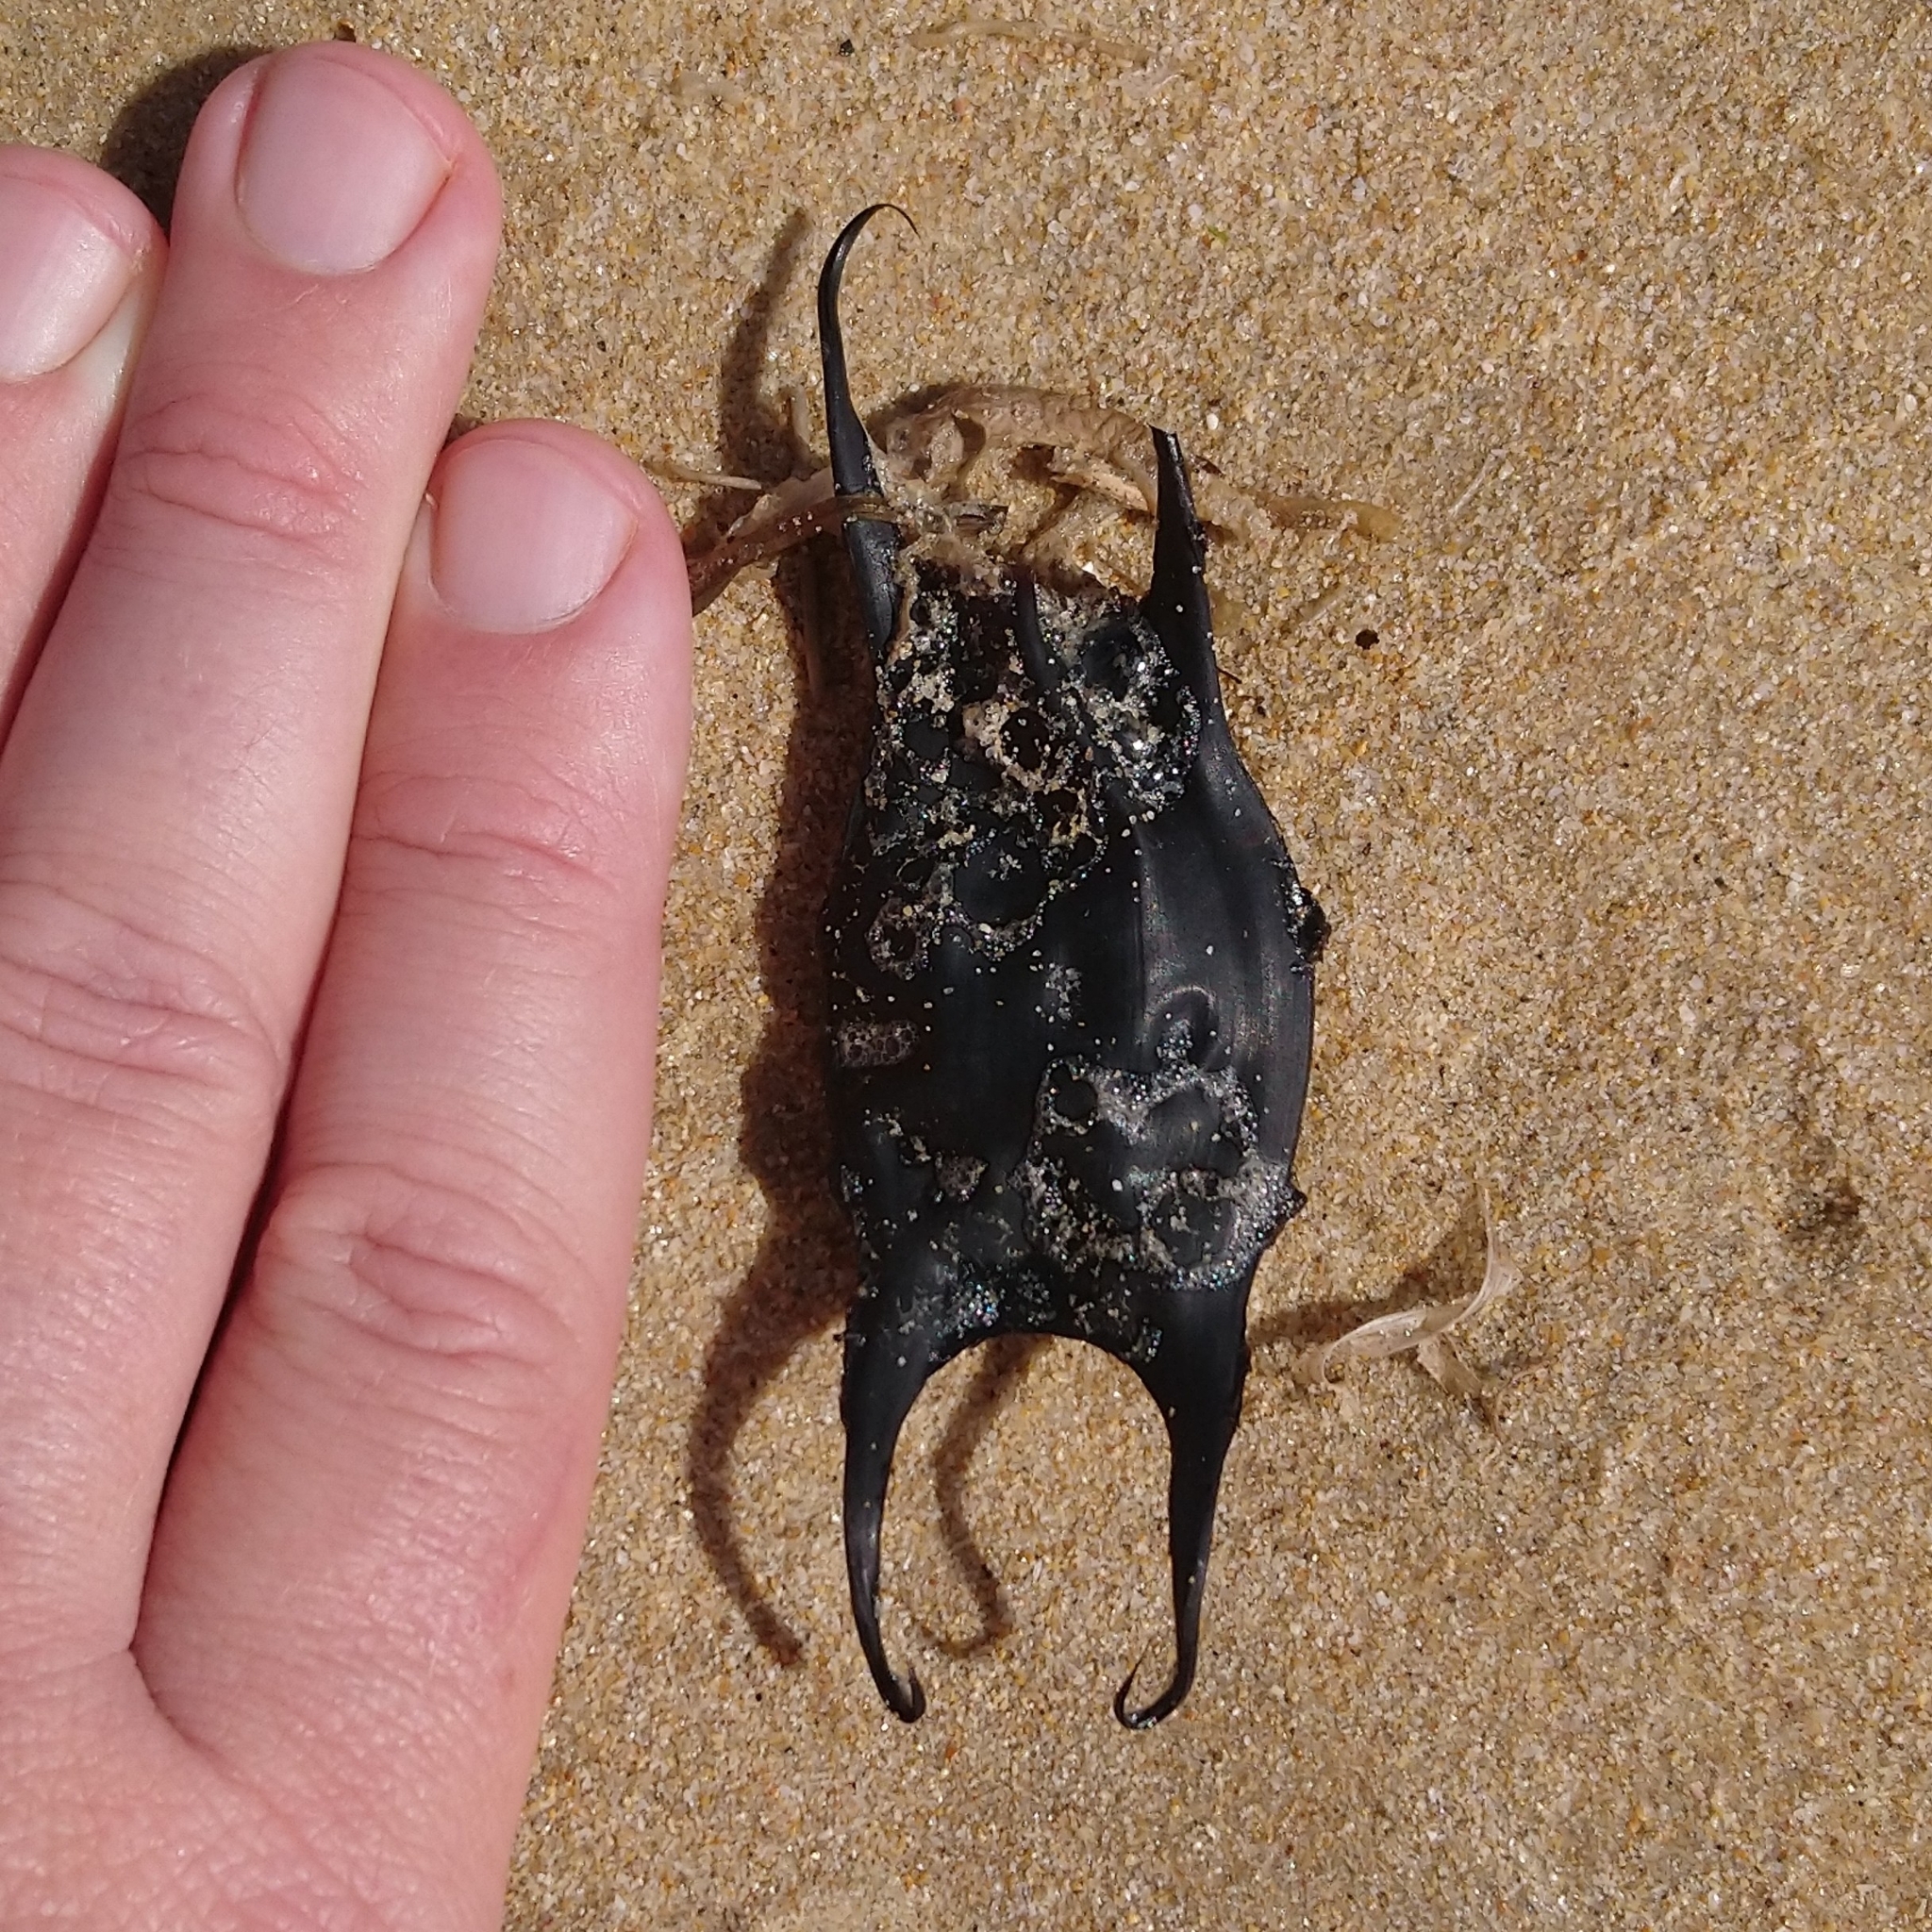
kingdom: Animalia
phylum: Chordata
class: Elasmobranchii
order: Rajiformes
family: Rajidae
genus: Raja
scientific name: Raja ocellifera
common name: Twineye skate
